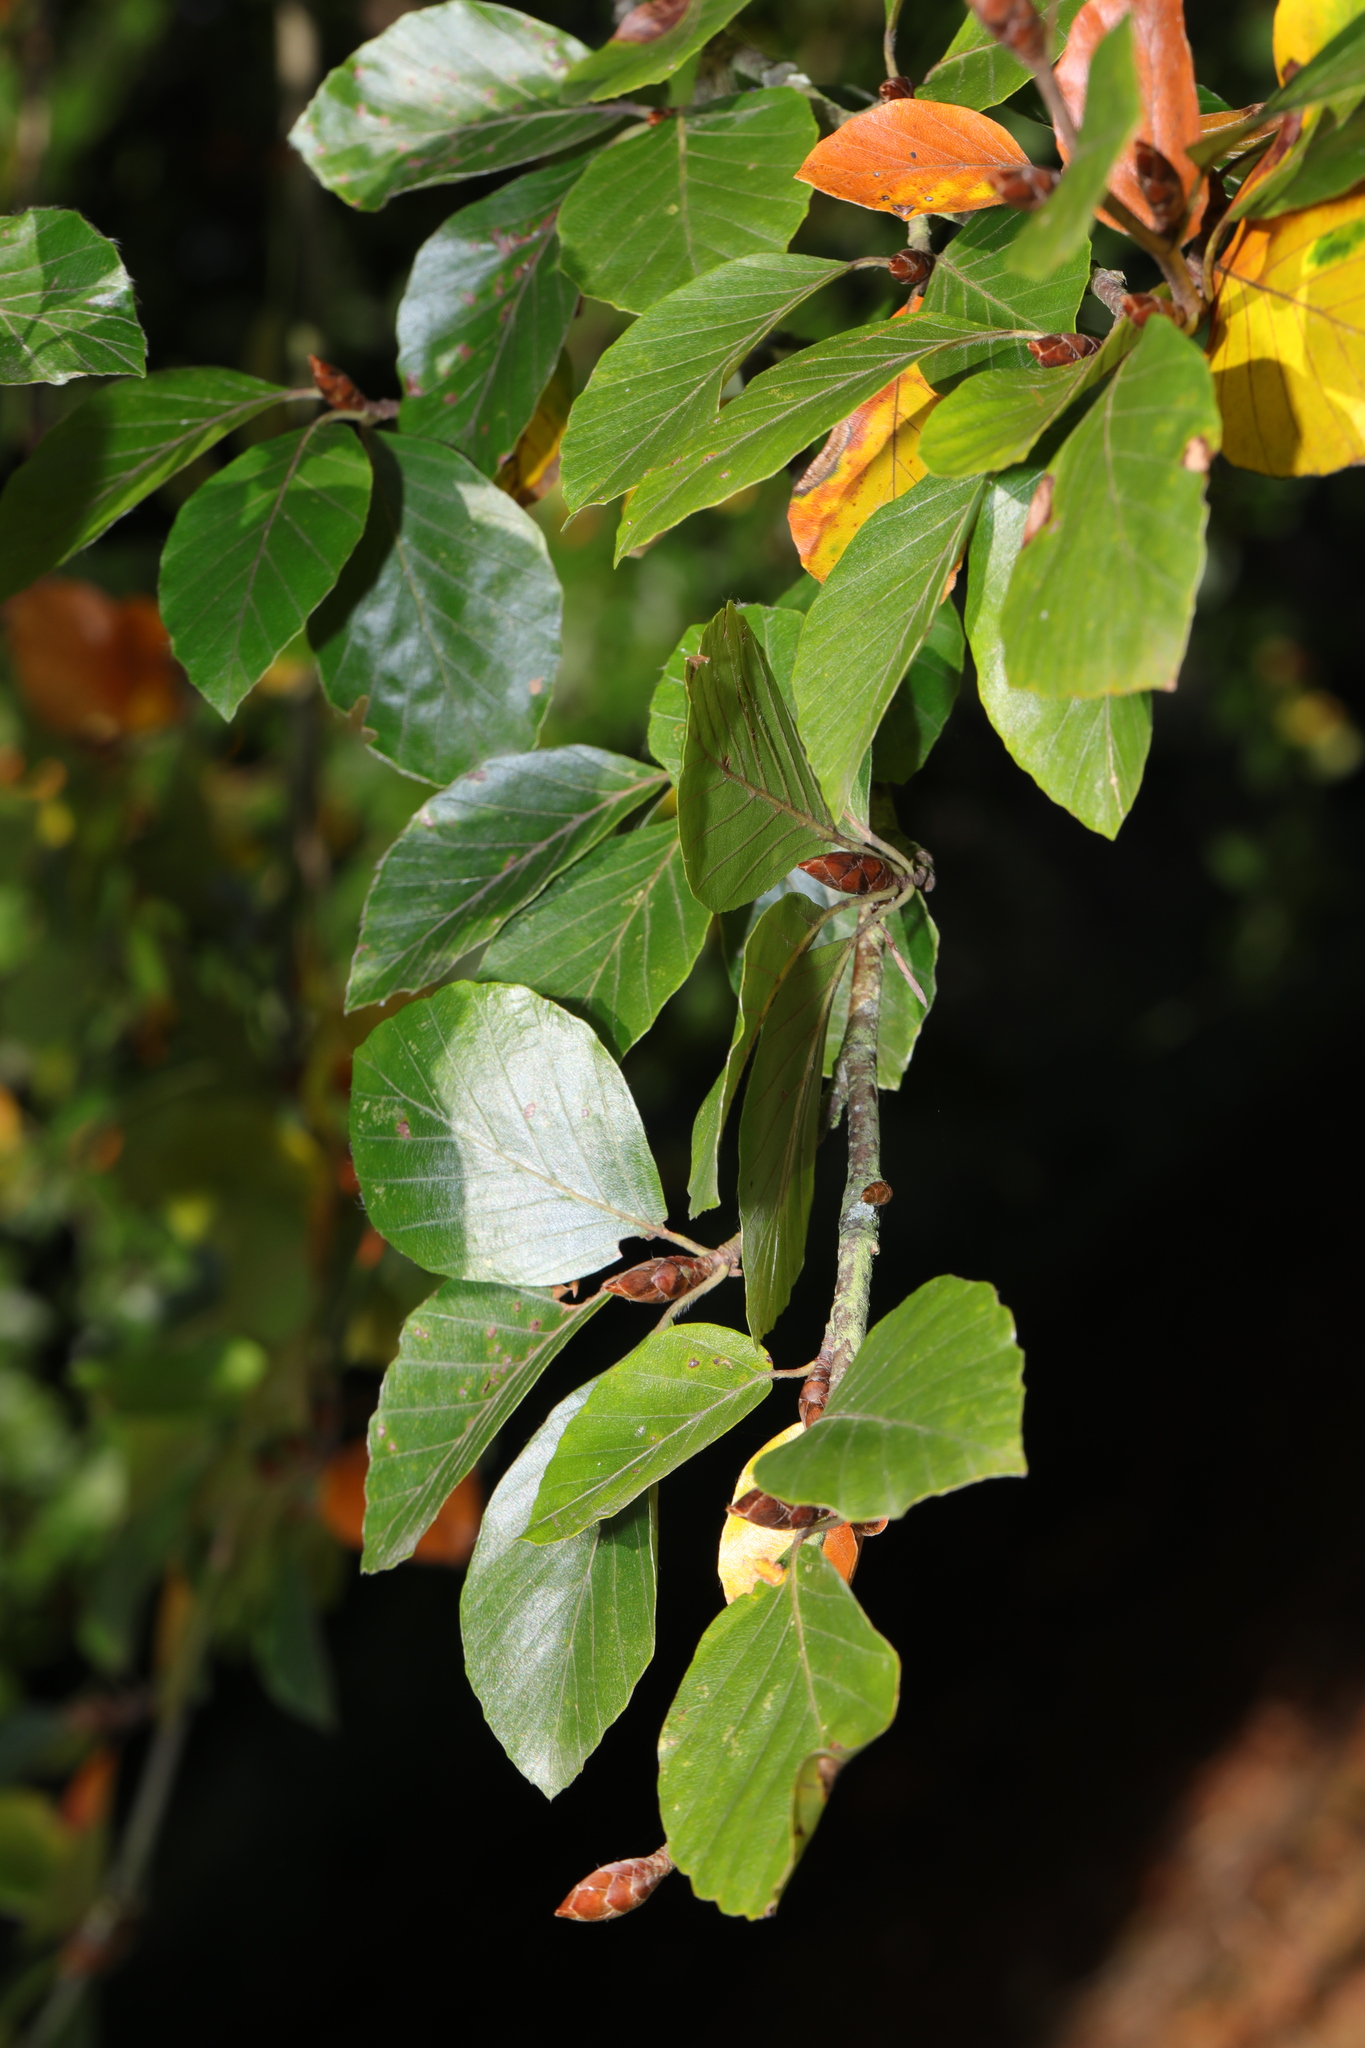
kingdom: Plantae
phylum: Tracheophyta
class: Magnoliopsida
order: Fagales
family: Fagaceae
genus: Fagus
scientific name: Fagus sylvatica
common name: Beech
